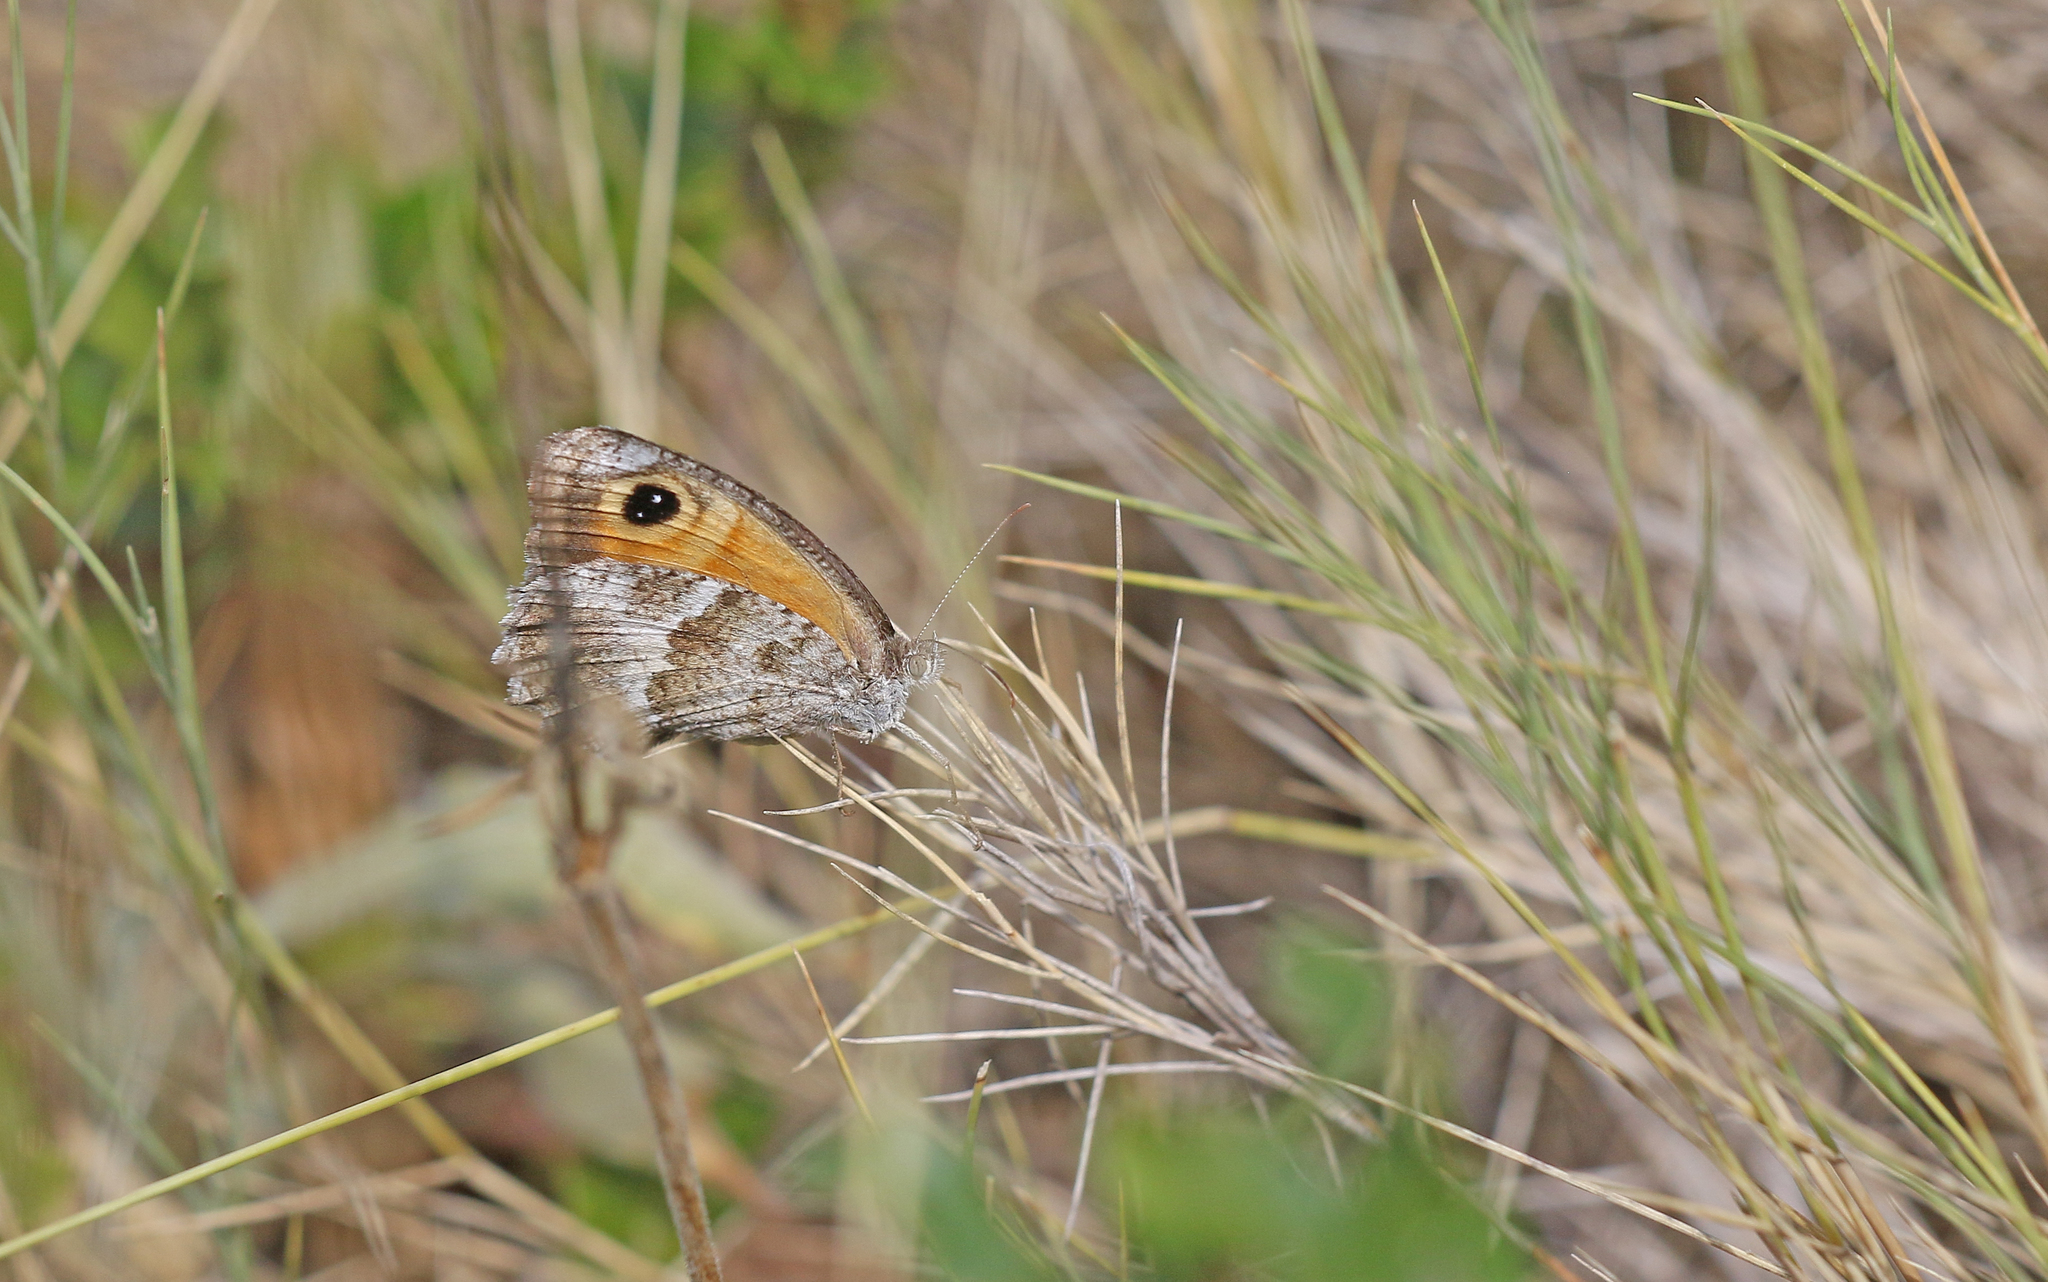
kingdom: Animalia
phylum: Arthropoda
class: Insecta
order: Lepidoptera
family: Nymphalidae
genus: Pyronia
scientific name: Pyronia cecilia
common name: Southern gatekeeper
